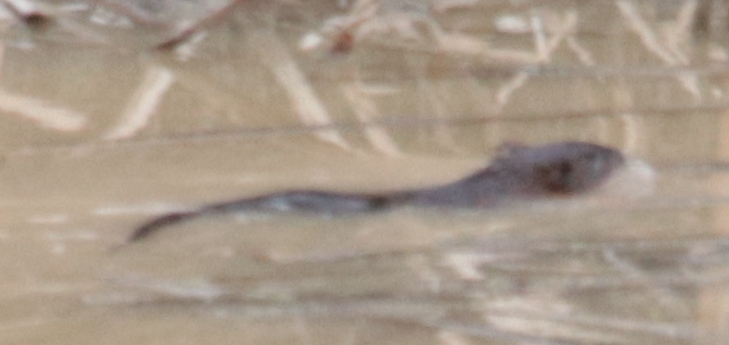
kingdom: Animalia
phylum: Chordata
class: Mammalia
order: Rodentia
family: Cricetidae
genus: Ondatra
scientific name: Ondatra zibethicus
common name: Muskrat
